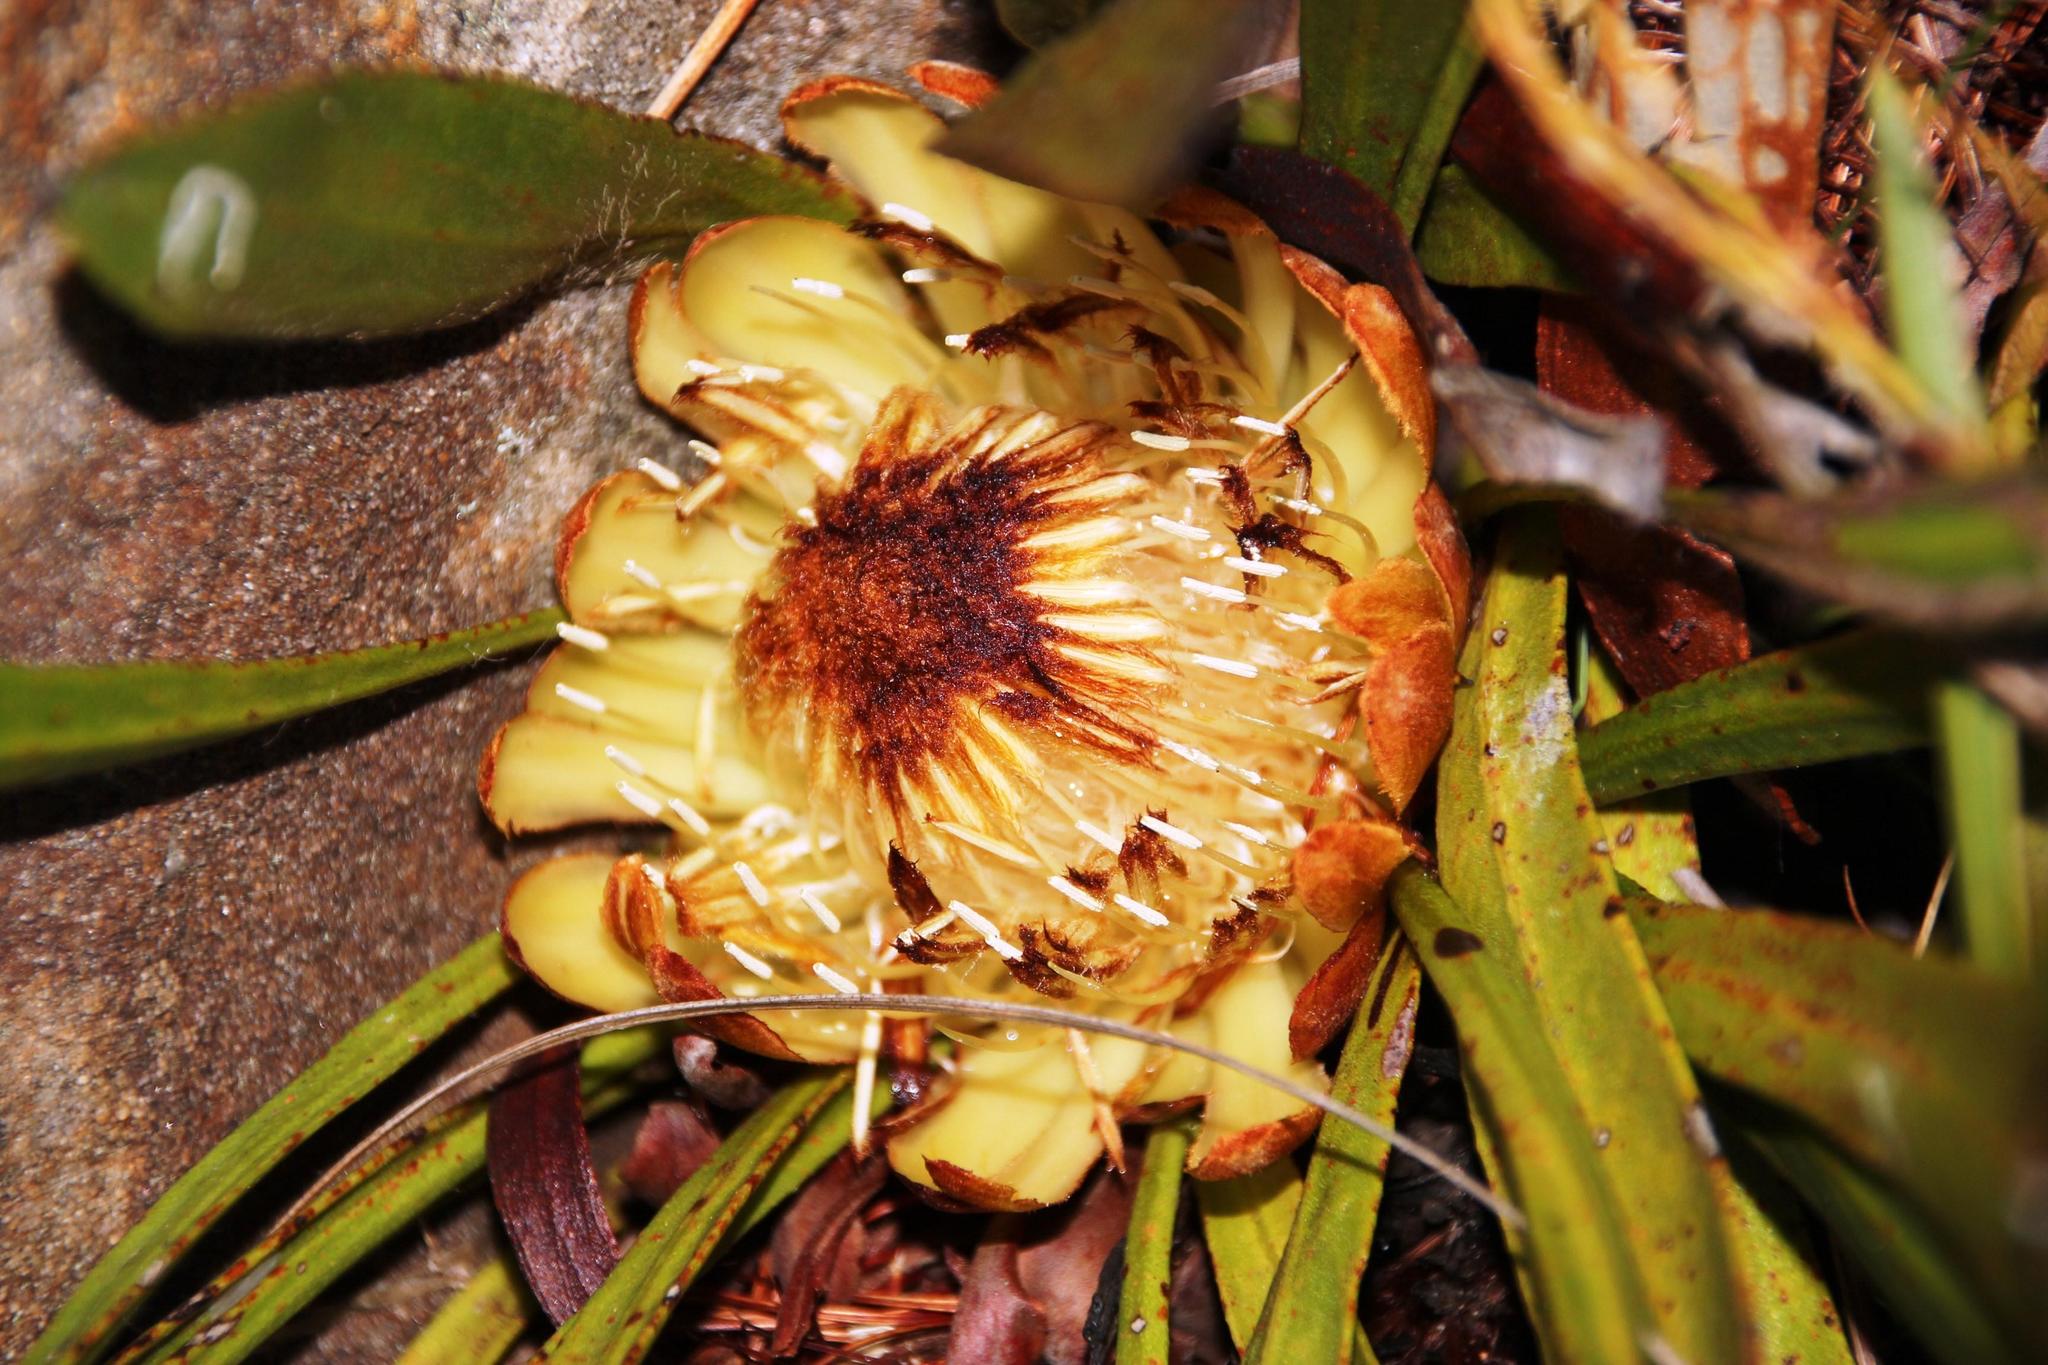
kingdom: Plantae
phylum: Tracheophyta
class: Magnoliopsida
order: Proteales
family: Proteaceae
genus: Protea
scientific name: Protea scabra
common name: Sandpaper-leaf sugarbush
